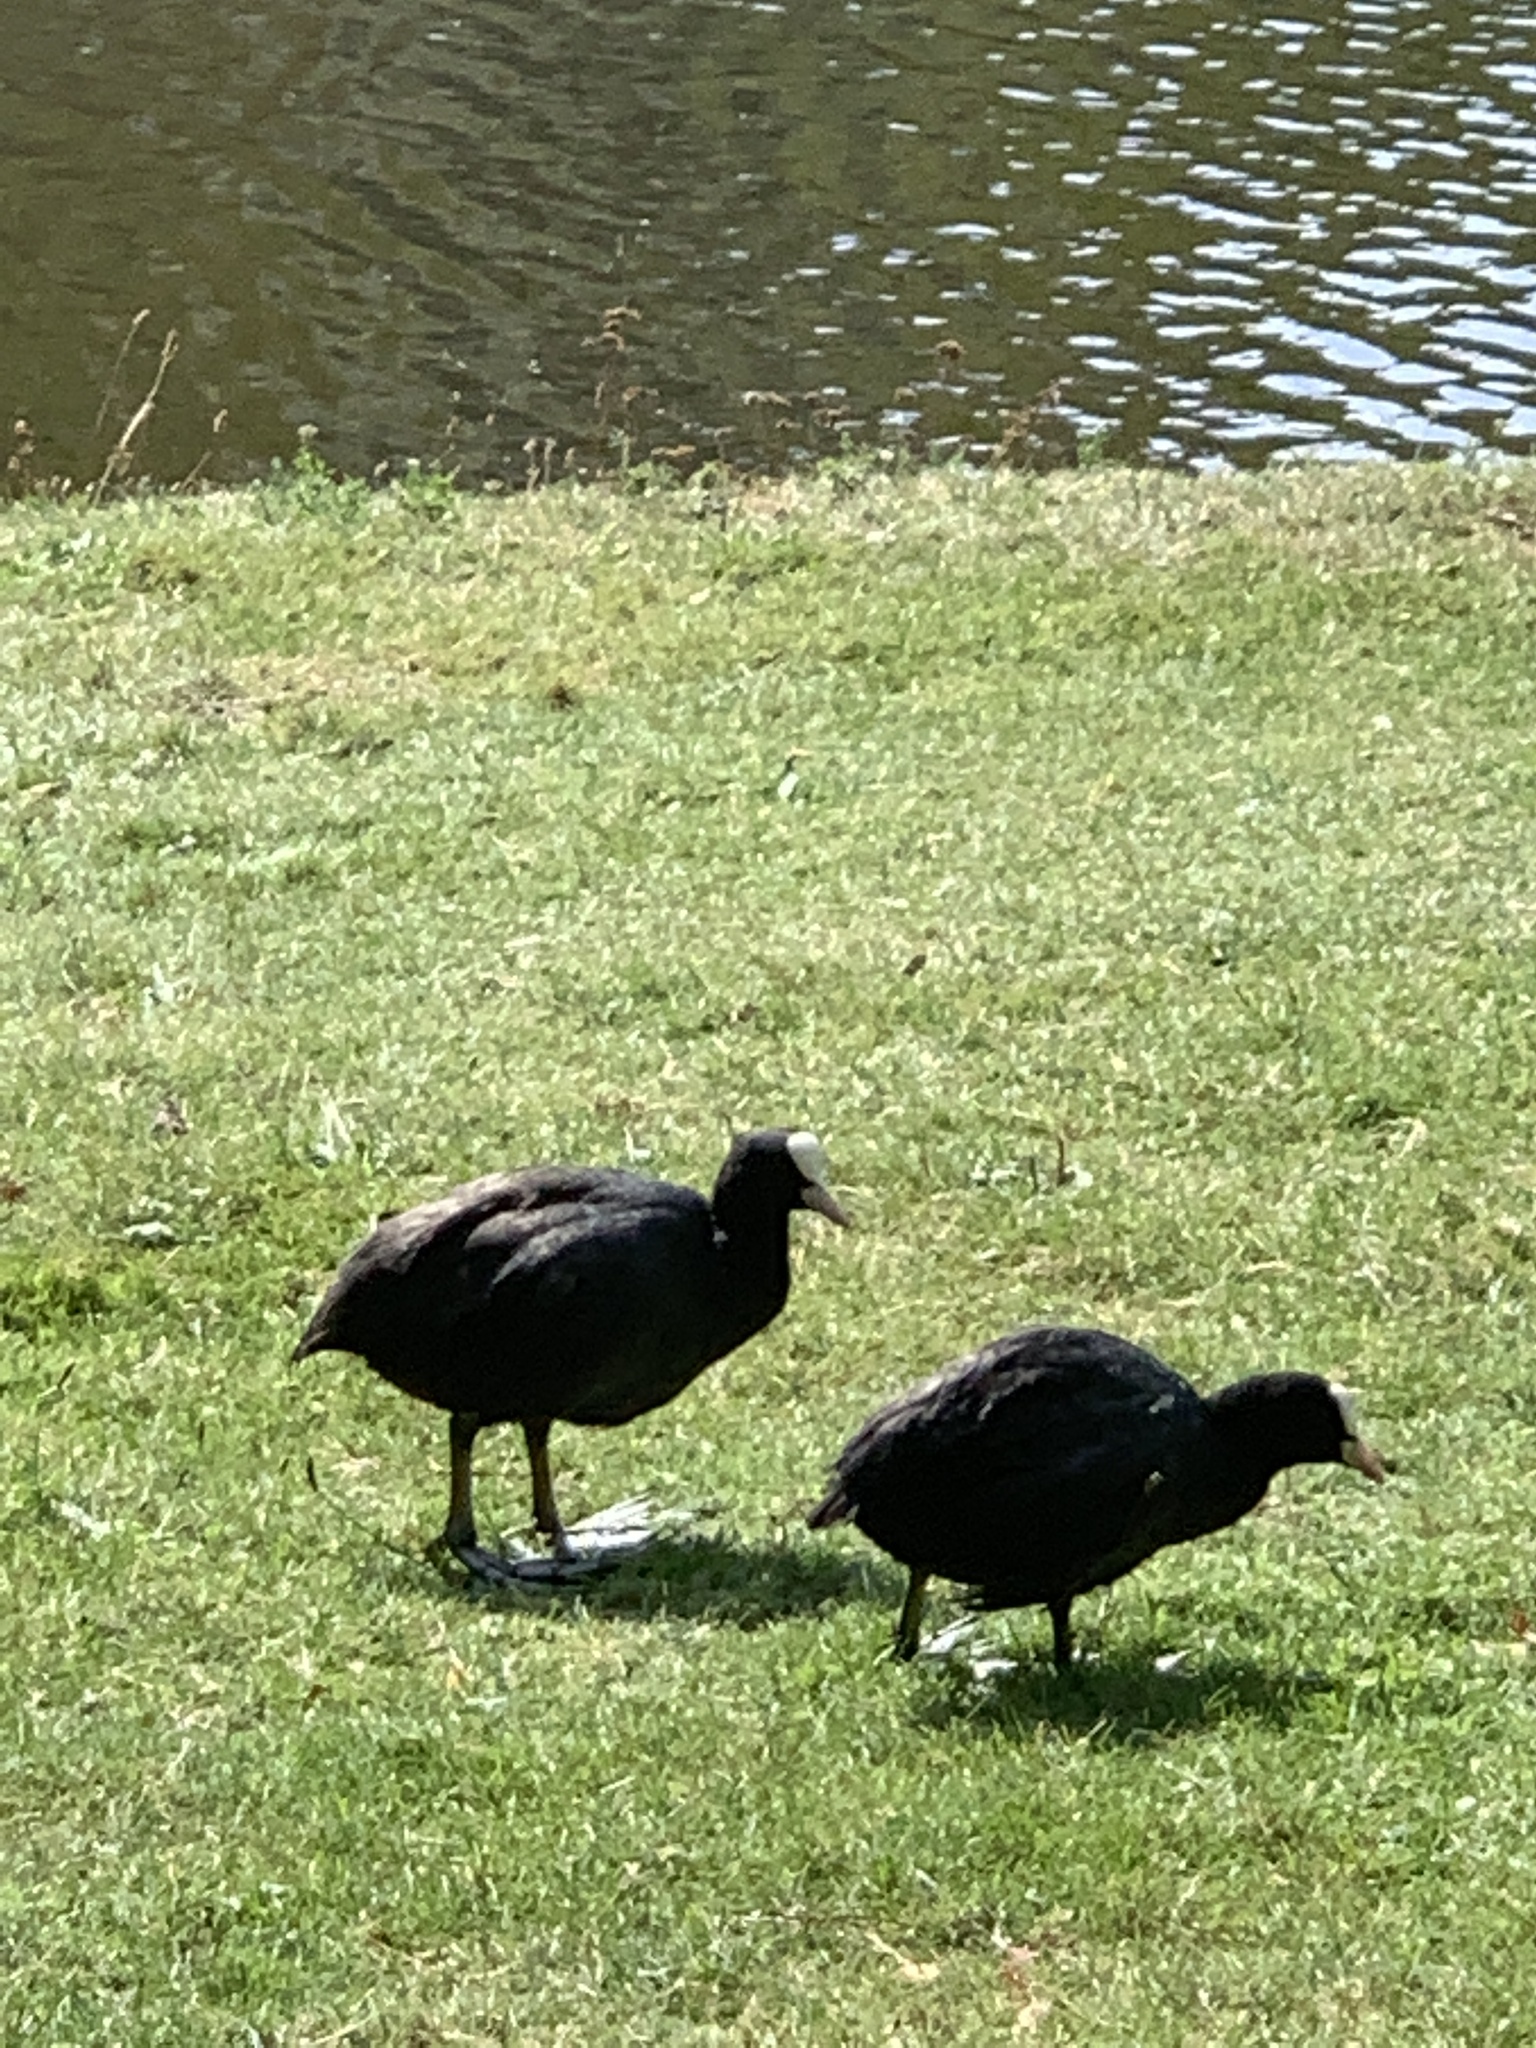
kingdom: Animalia
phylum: Chordata
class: Aves
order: Gruiformes
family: Rallidae
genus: Fulica
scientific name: Fulica atra
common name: Eurasian coot
